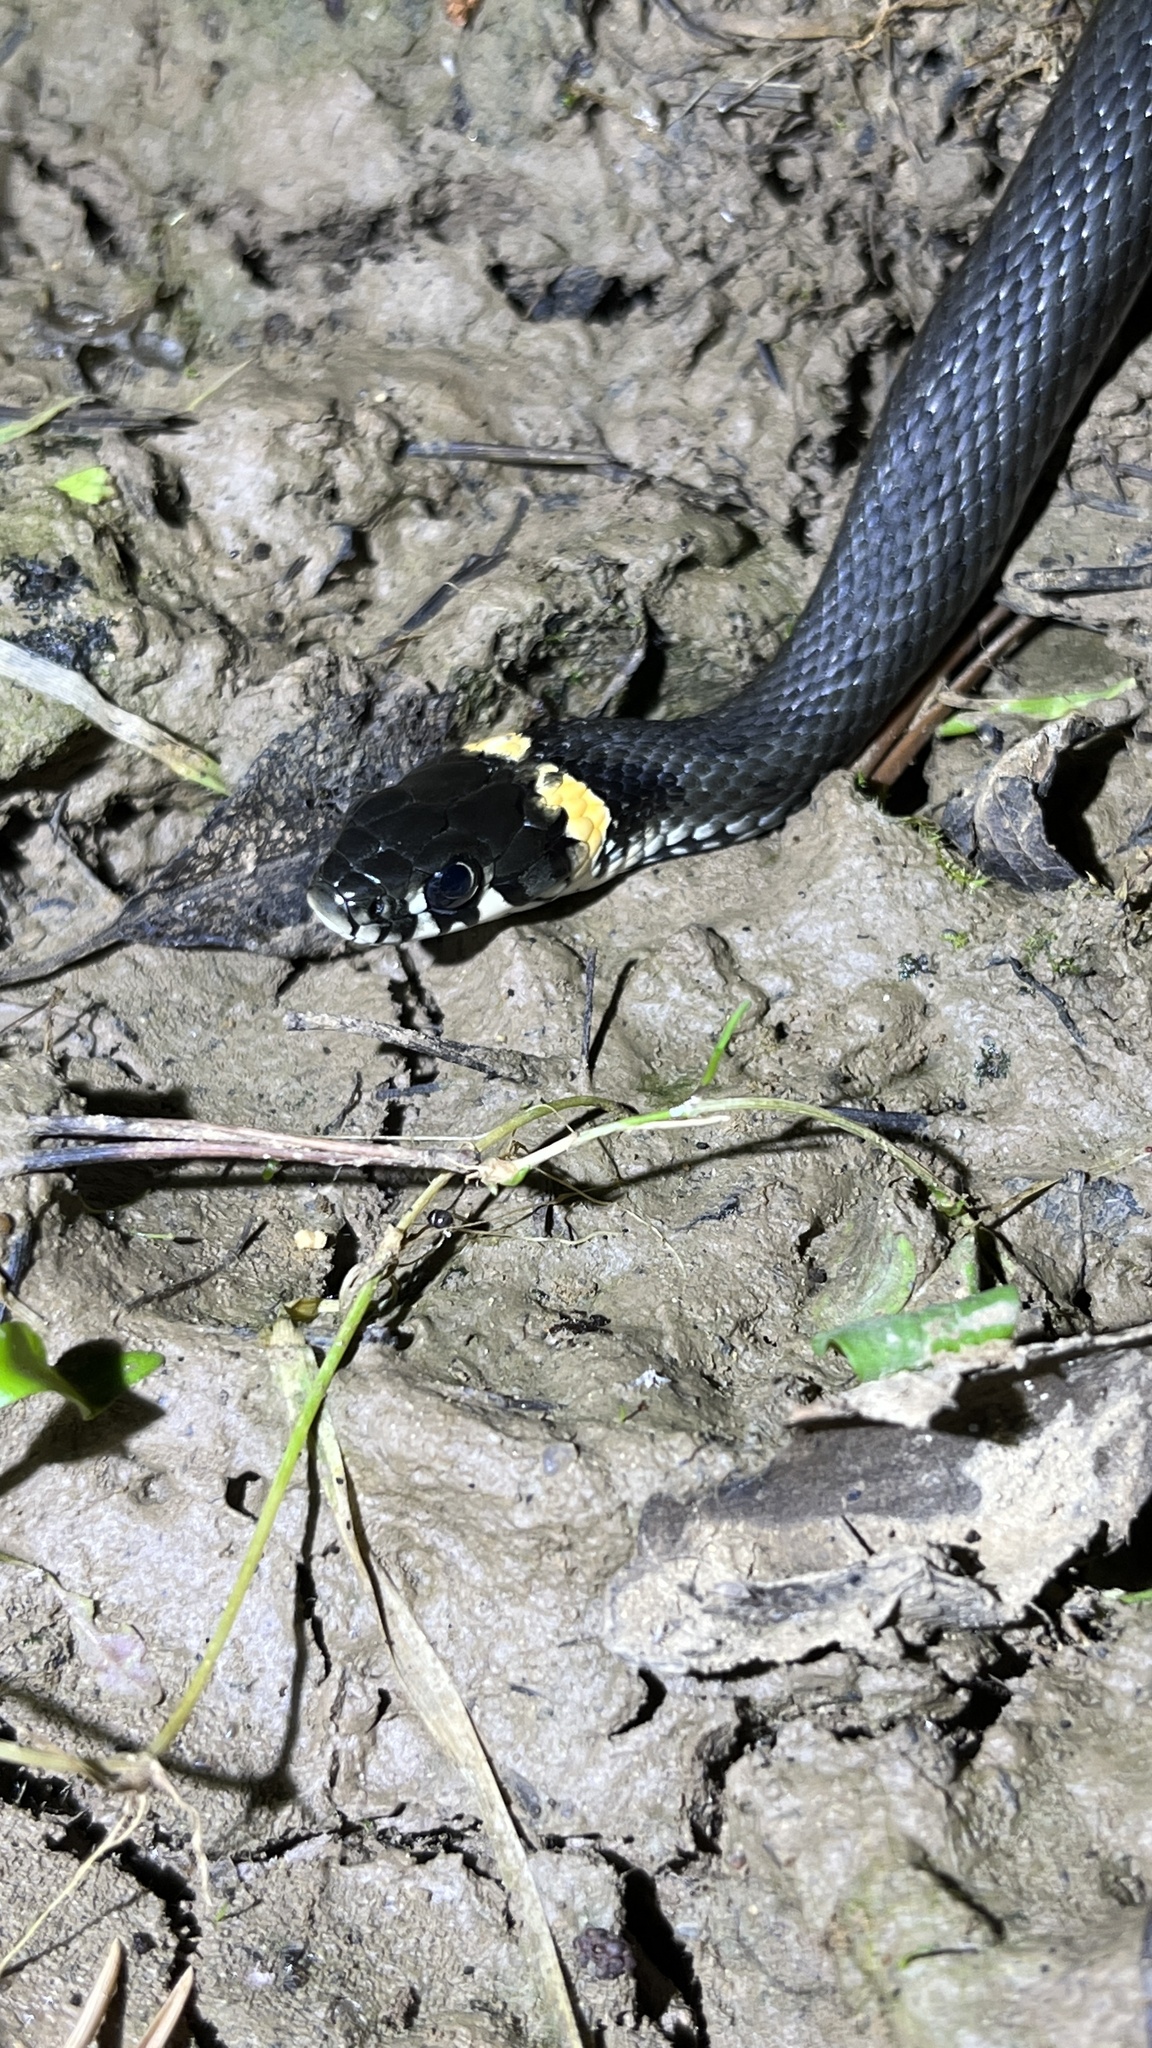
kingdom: Animalia
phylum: Chordata
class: Squamata
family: Colubridae
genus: Natrix
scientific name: Natrix natrix
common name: Grass snake
